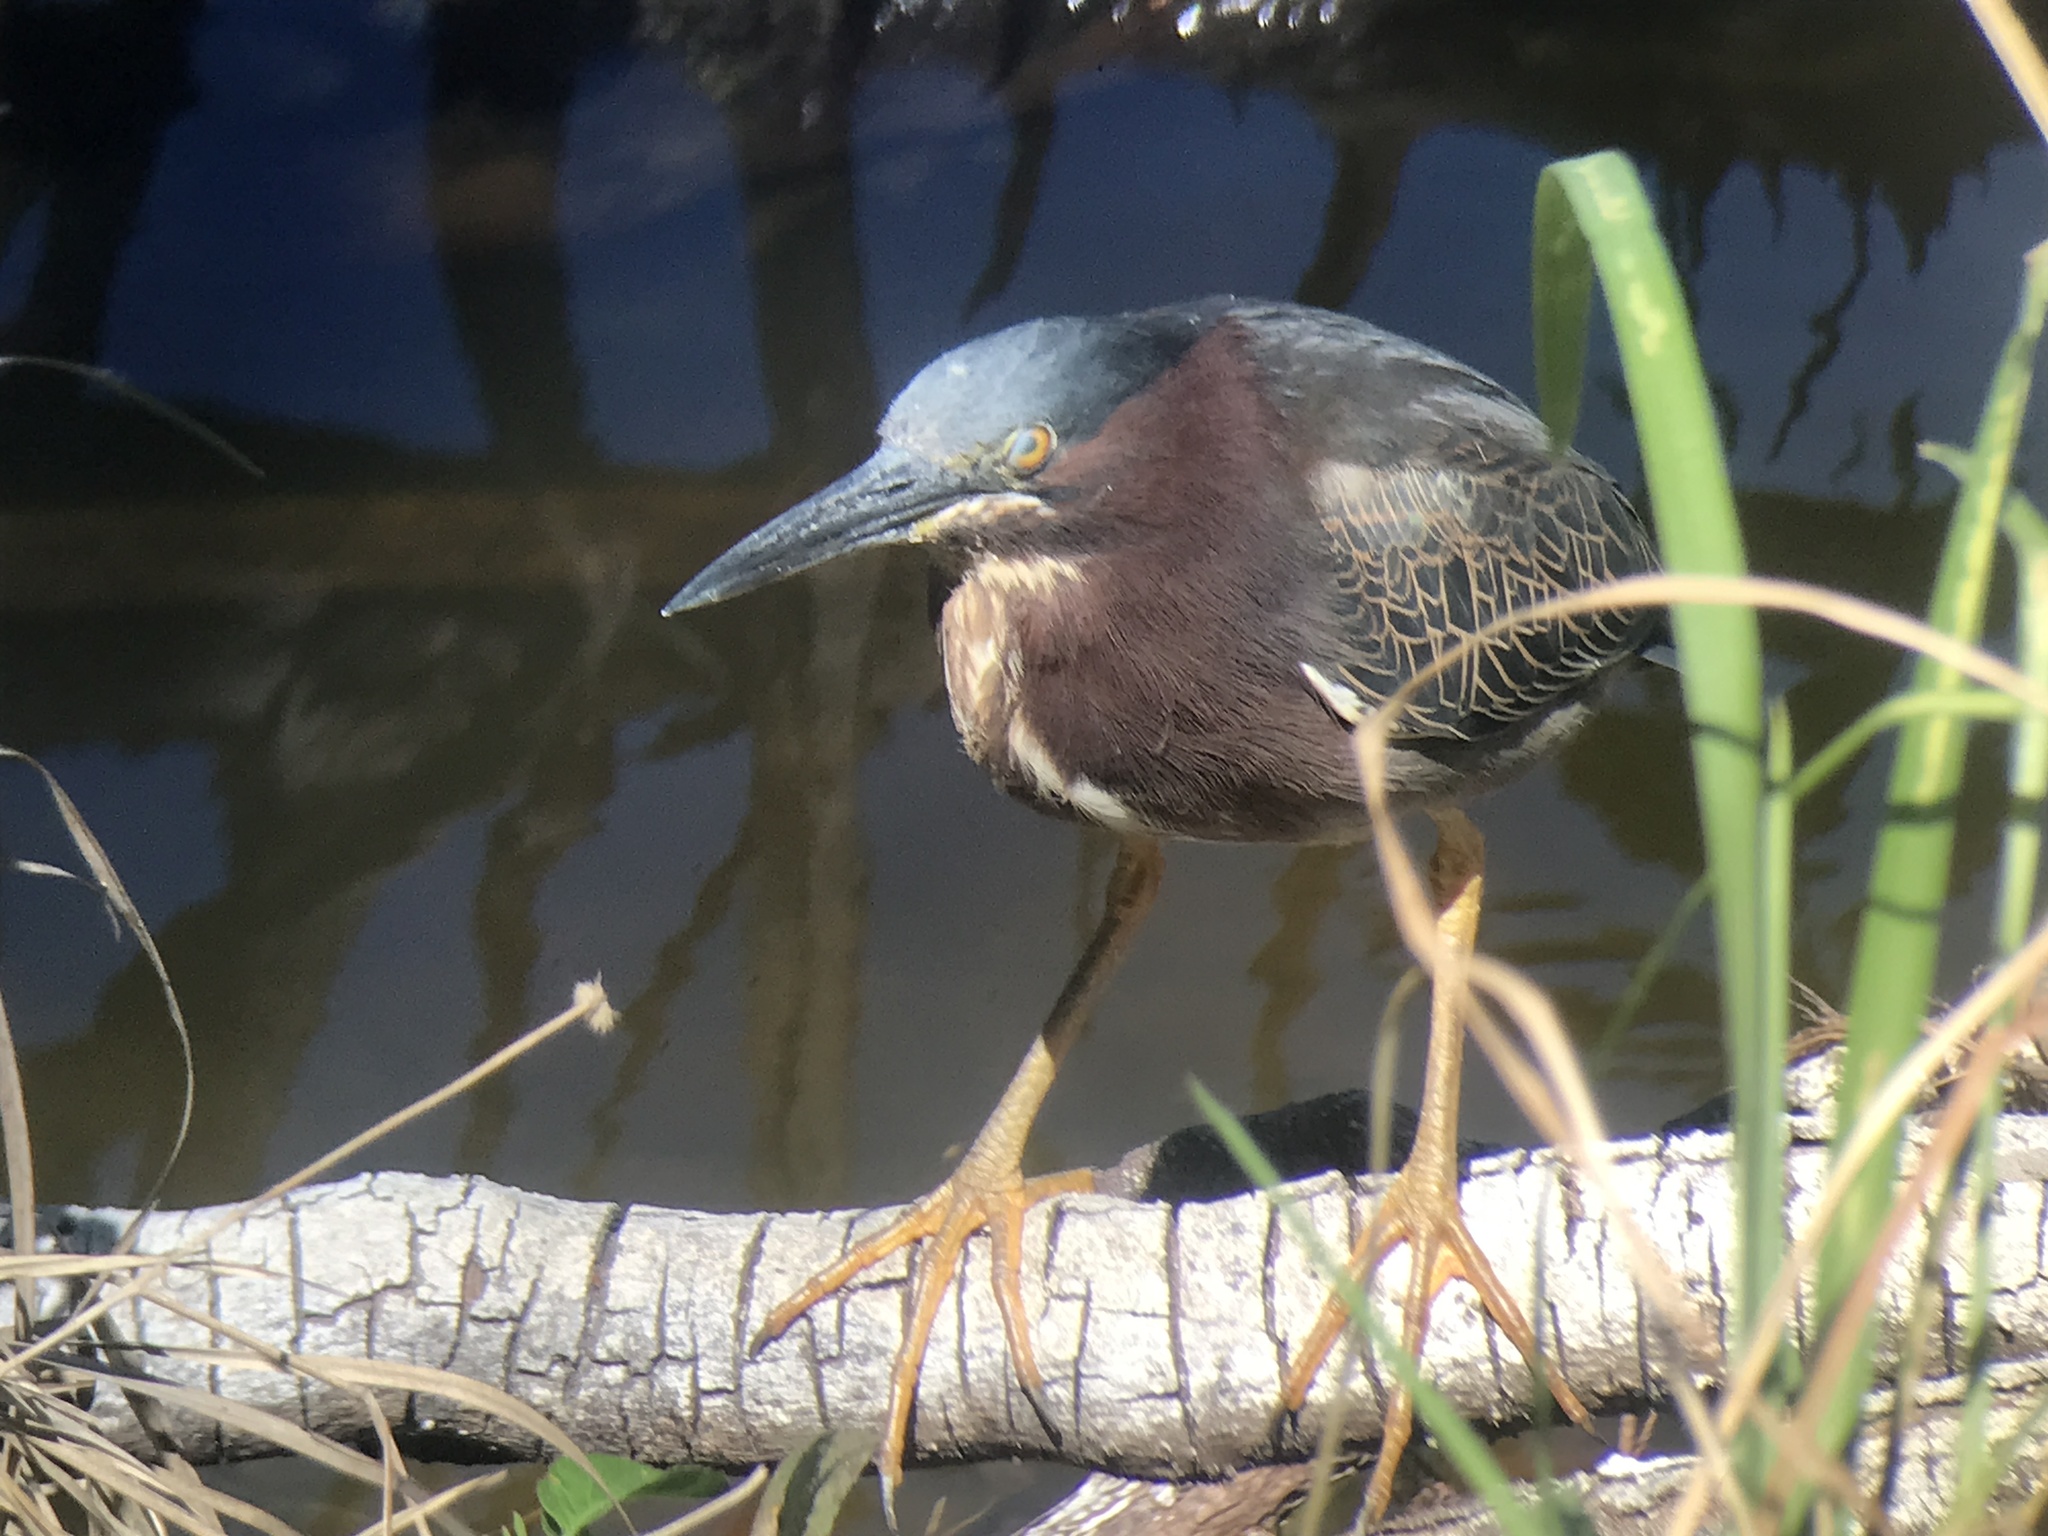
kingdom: Animalia
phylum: Chordata
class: Aves
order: Pelecaniformes
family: Ardeidae
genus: Butorides
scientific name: Butorides virescens
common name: Green heron
